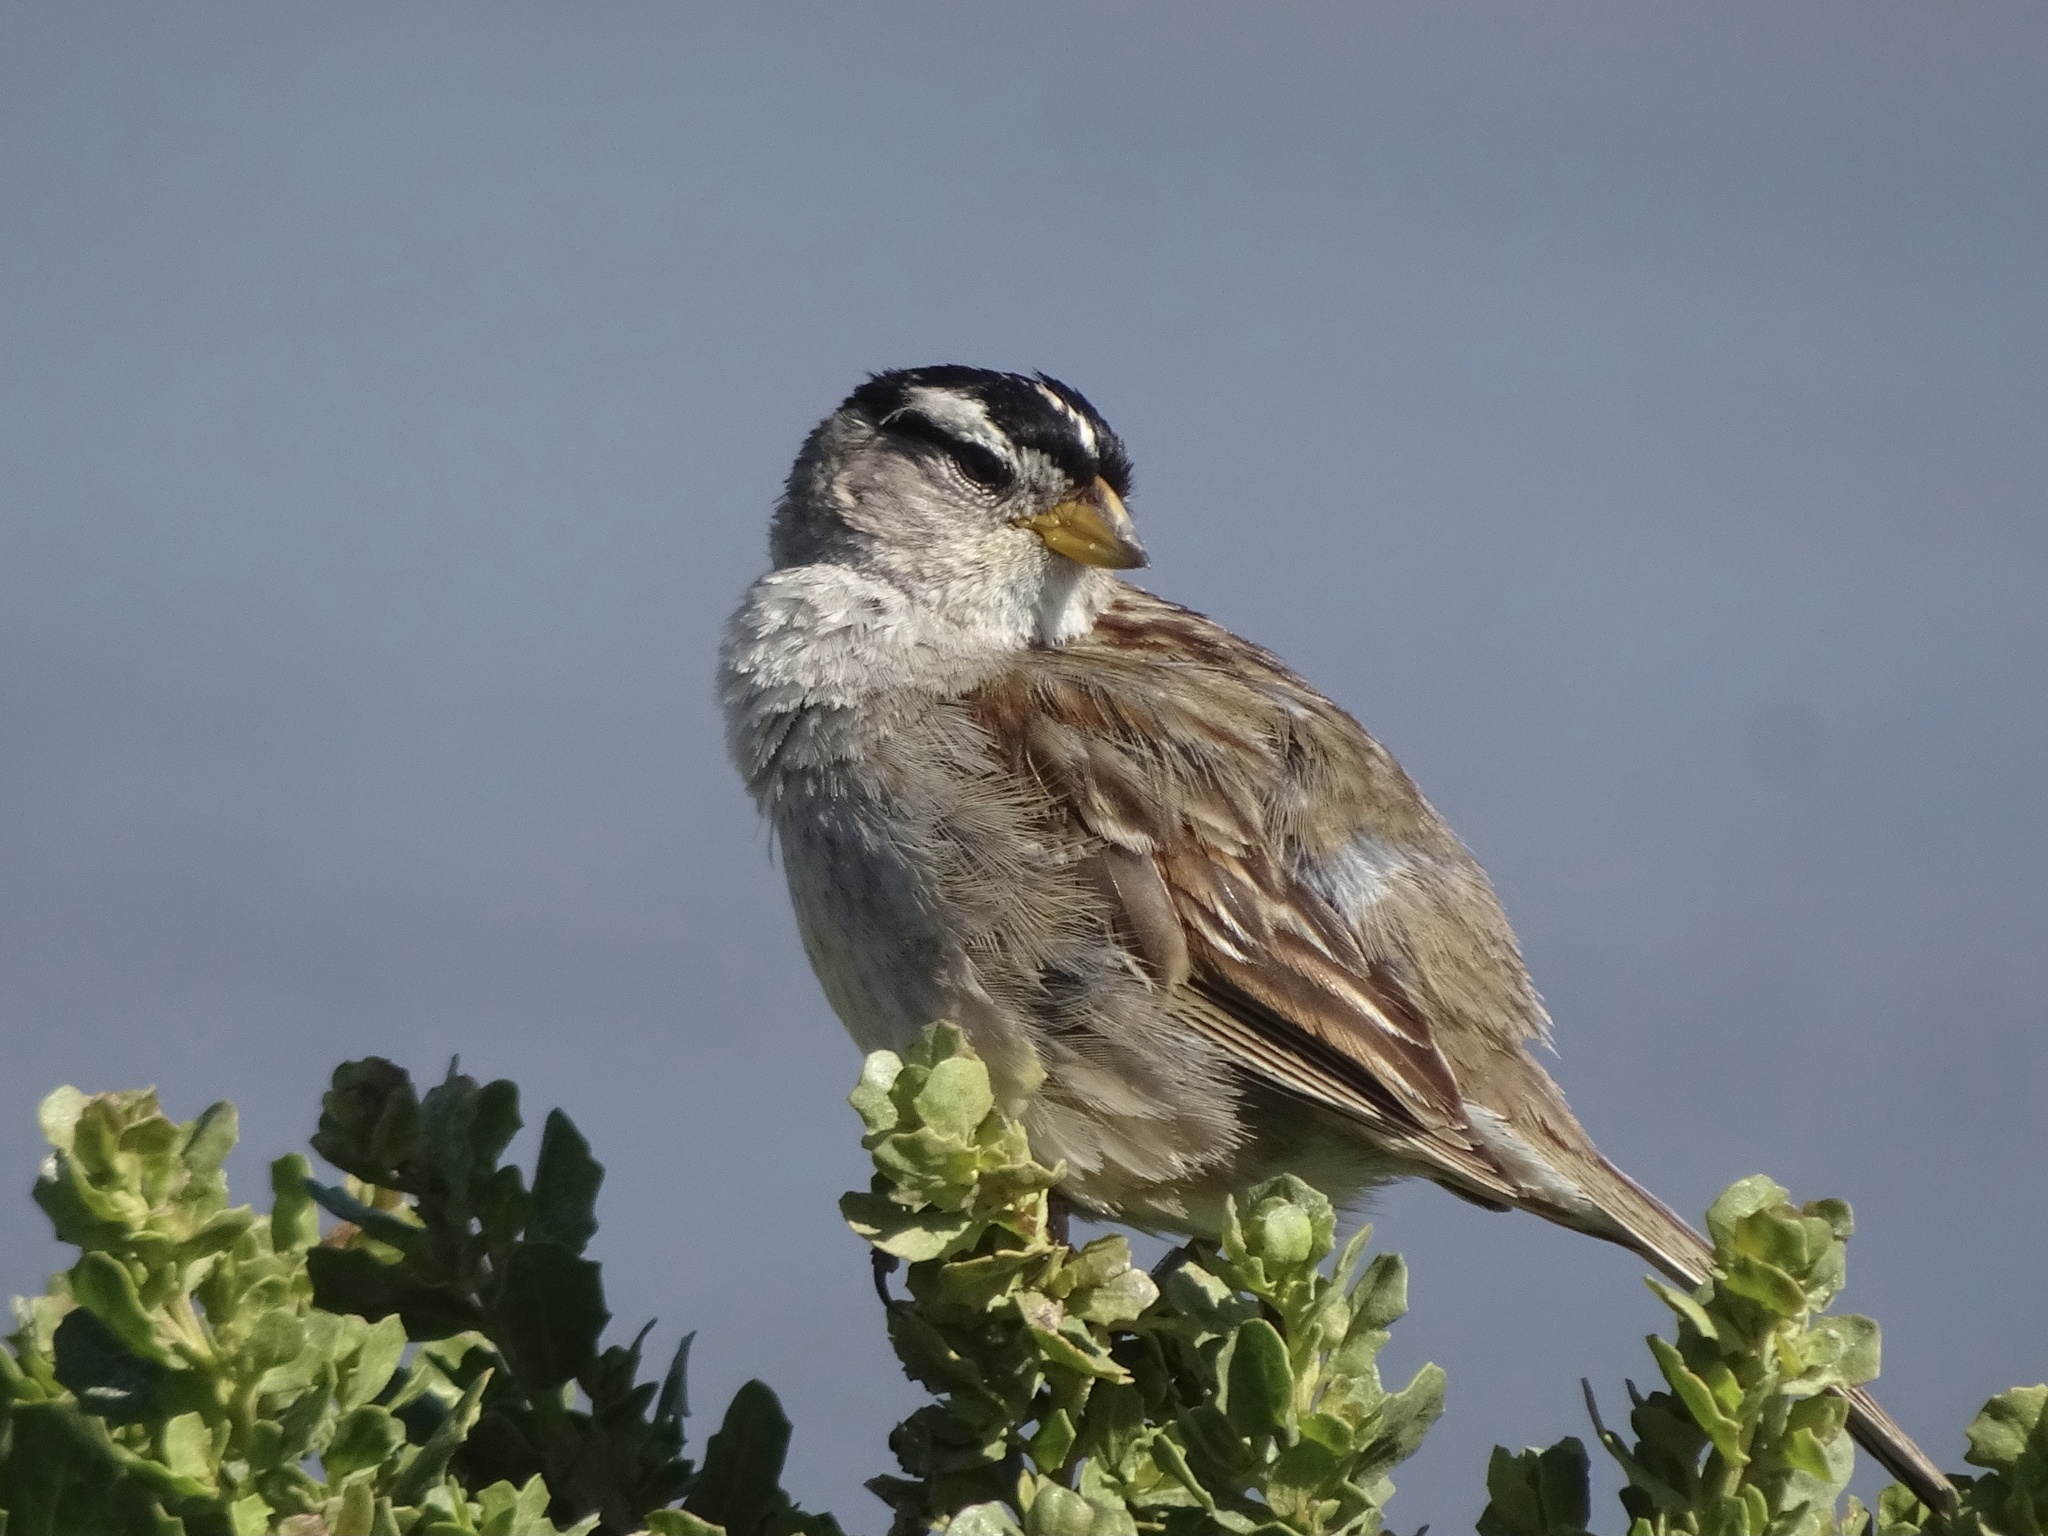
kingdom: Animalia
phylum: Chordata
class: Aves
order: Passeriformes
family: Passerellidae
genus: Zonotrichia
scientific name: Zonotrichia leucophrys
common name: White-crowned sparrow
